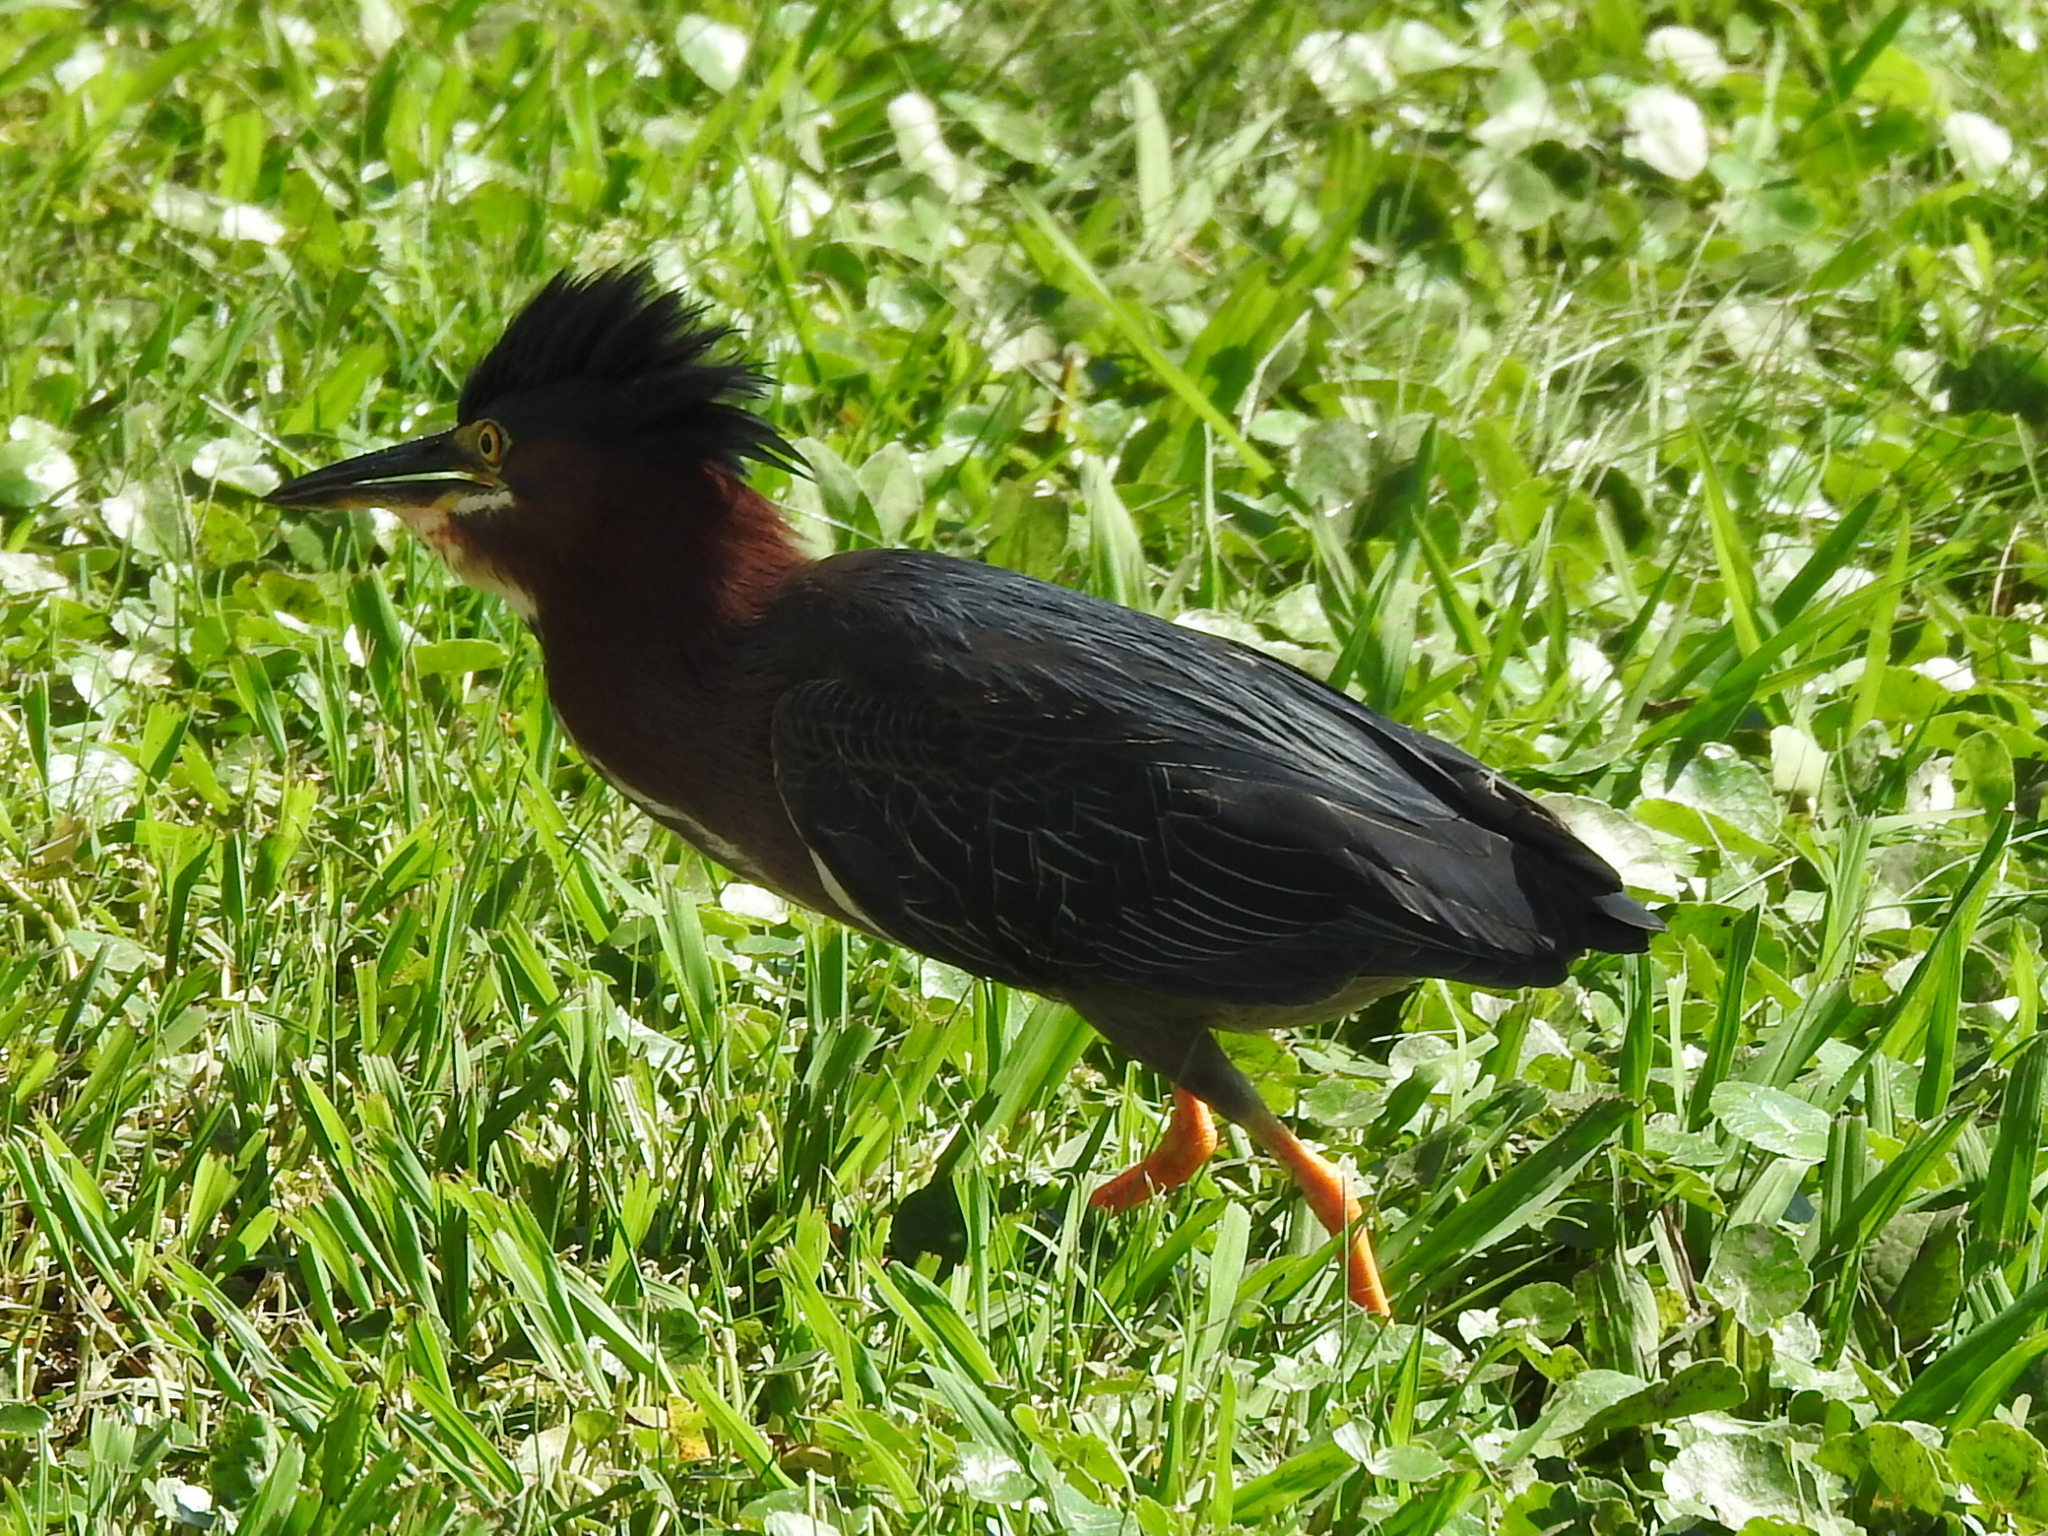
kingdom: Animalia
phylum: Chordata
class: Aves
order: Pelecaniformes
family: Ardeidae
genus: Butorides
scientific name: Butorides virescens
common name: Green heron
